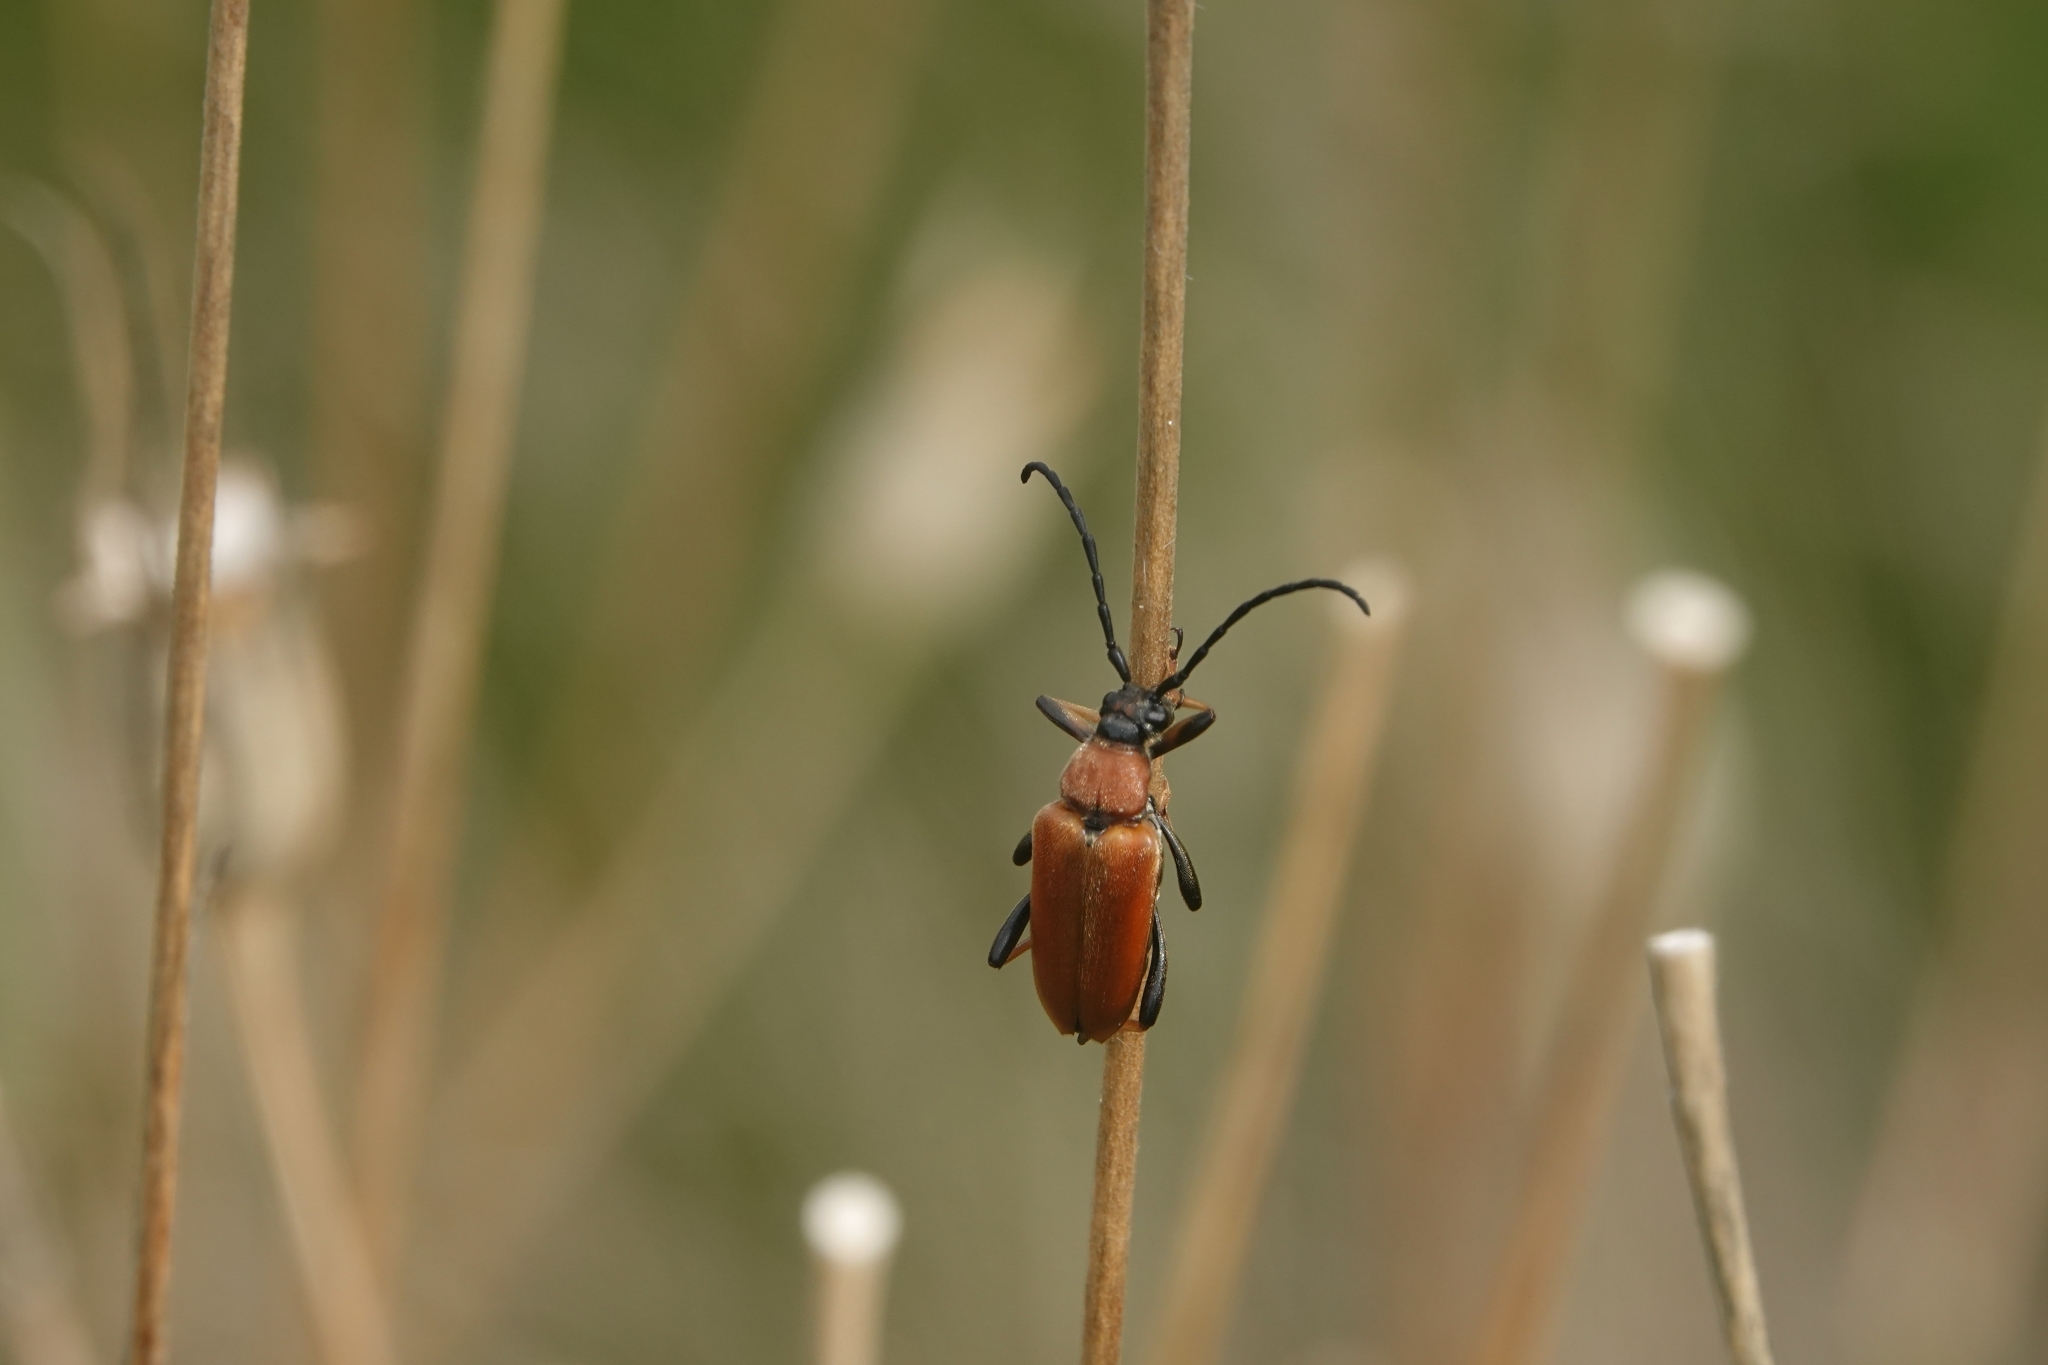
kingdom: Animalia
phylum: Arthropoda
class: Insecta
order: Coleoptera
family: Cerambycidae
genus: Stictoleptura
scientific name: Stictoleptura rubra
